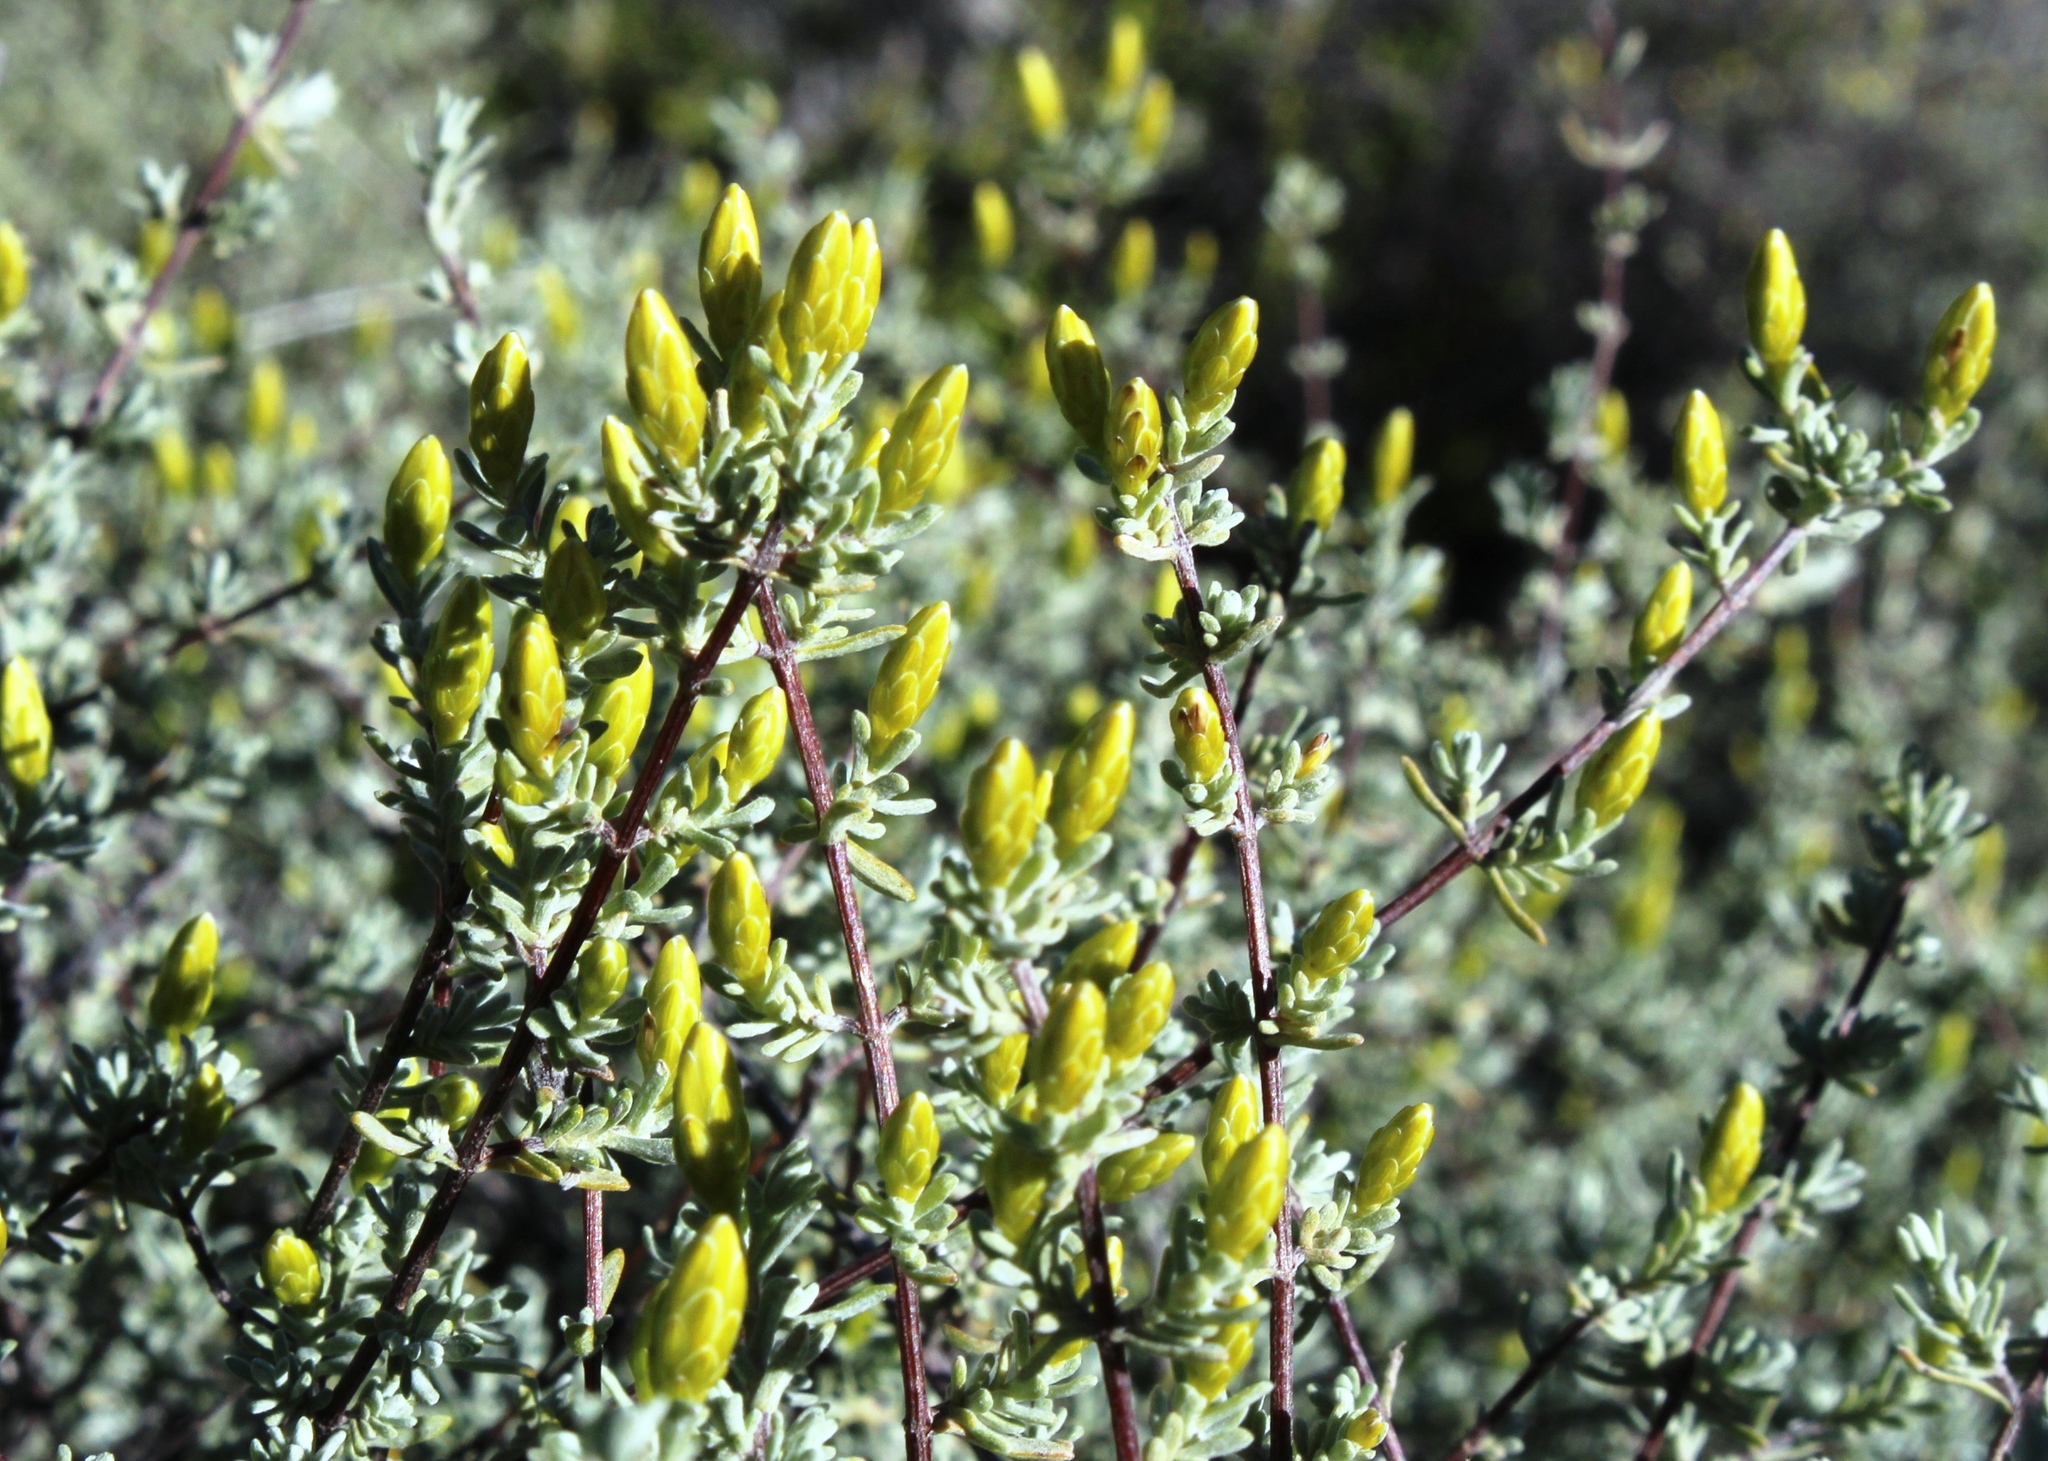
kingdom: Plantae
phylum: Tracheophyta
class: Magnoliopsida
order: Asterales
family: Asteraceae
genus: Pteronia
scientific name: Pteronia incana
